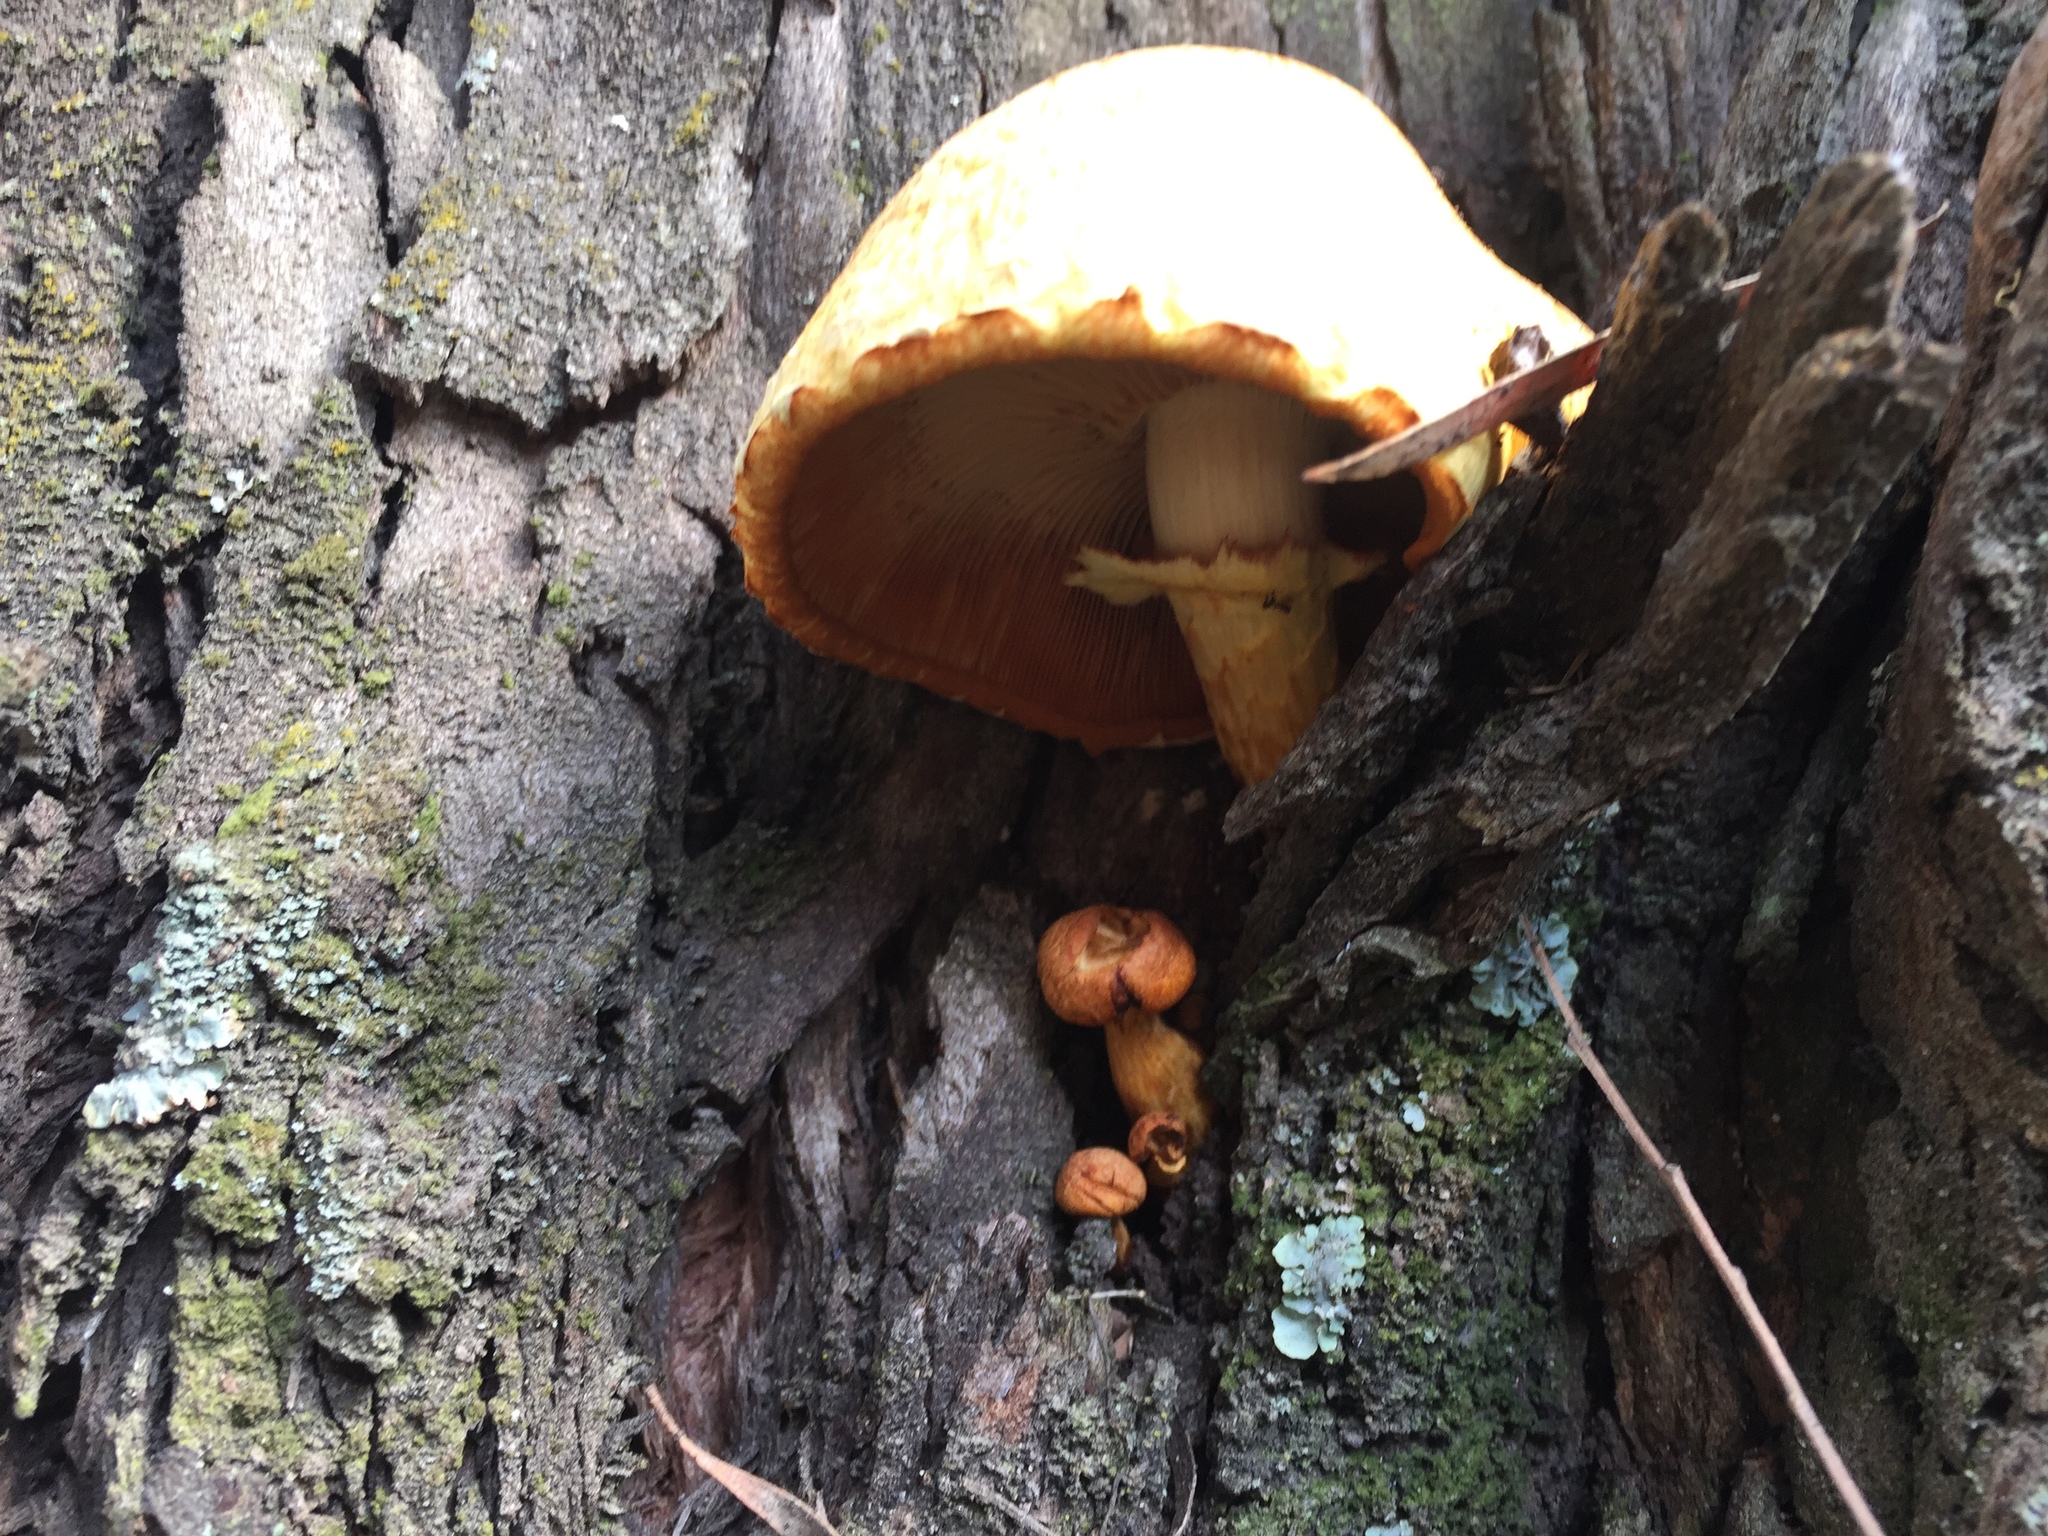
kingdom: Fungi
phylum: Basidiomycota
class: Agaricomycetes
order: Agaricales
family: Hymenogastraceae
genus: Gymnopilus
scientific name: Gymnopilus junonius
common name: Spectacular rustgill
